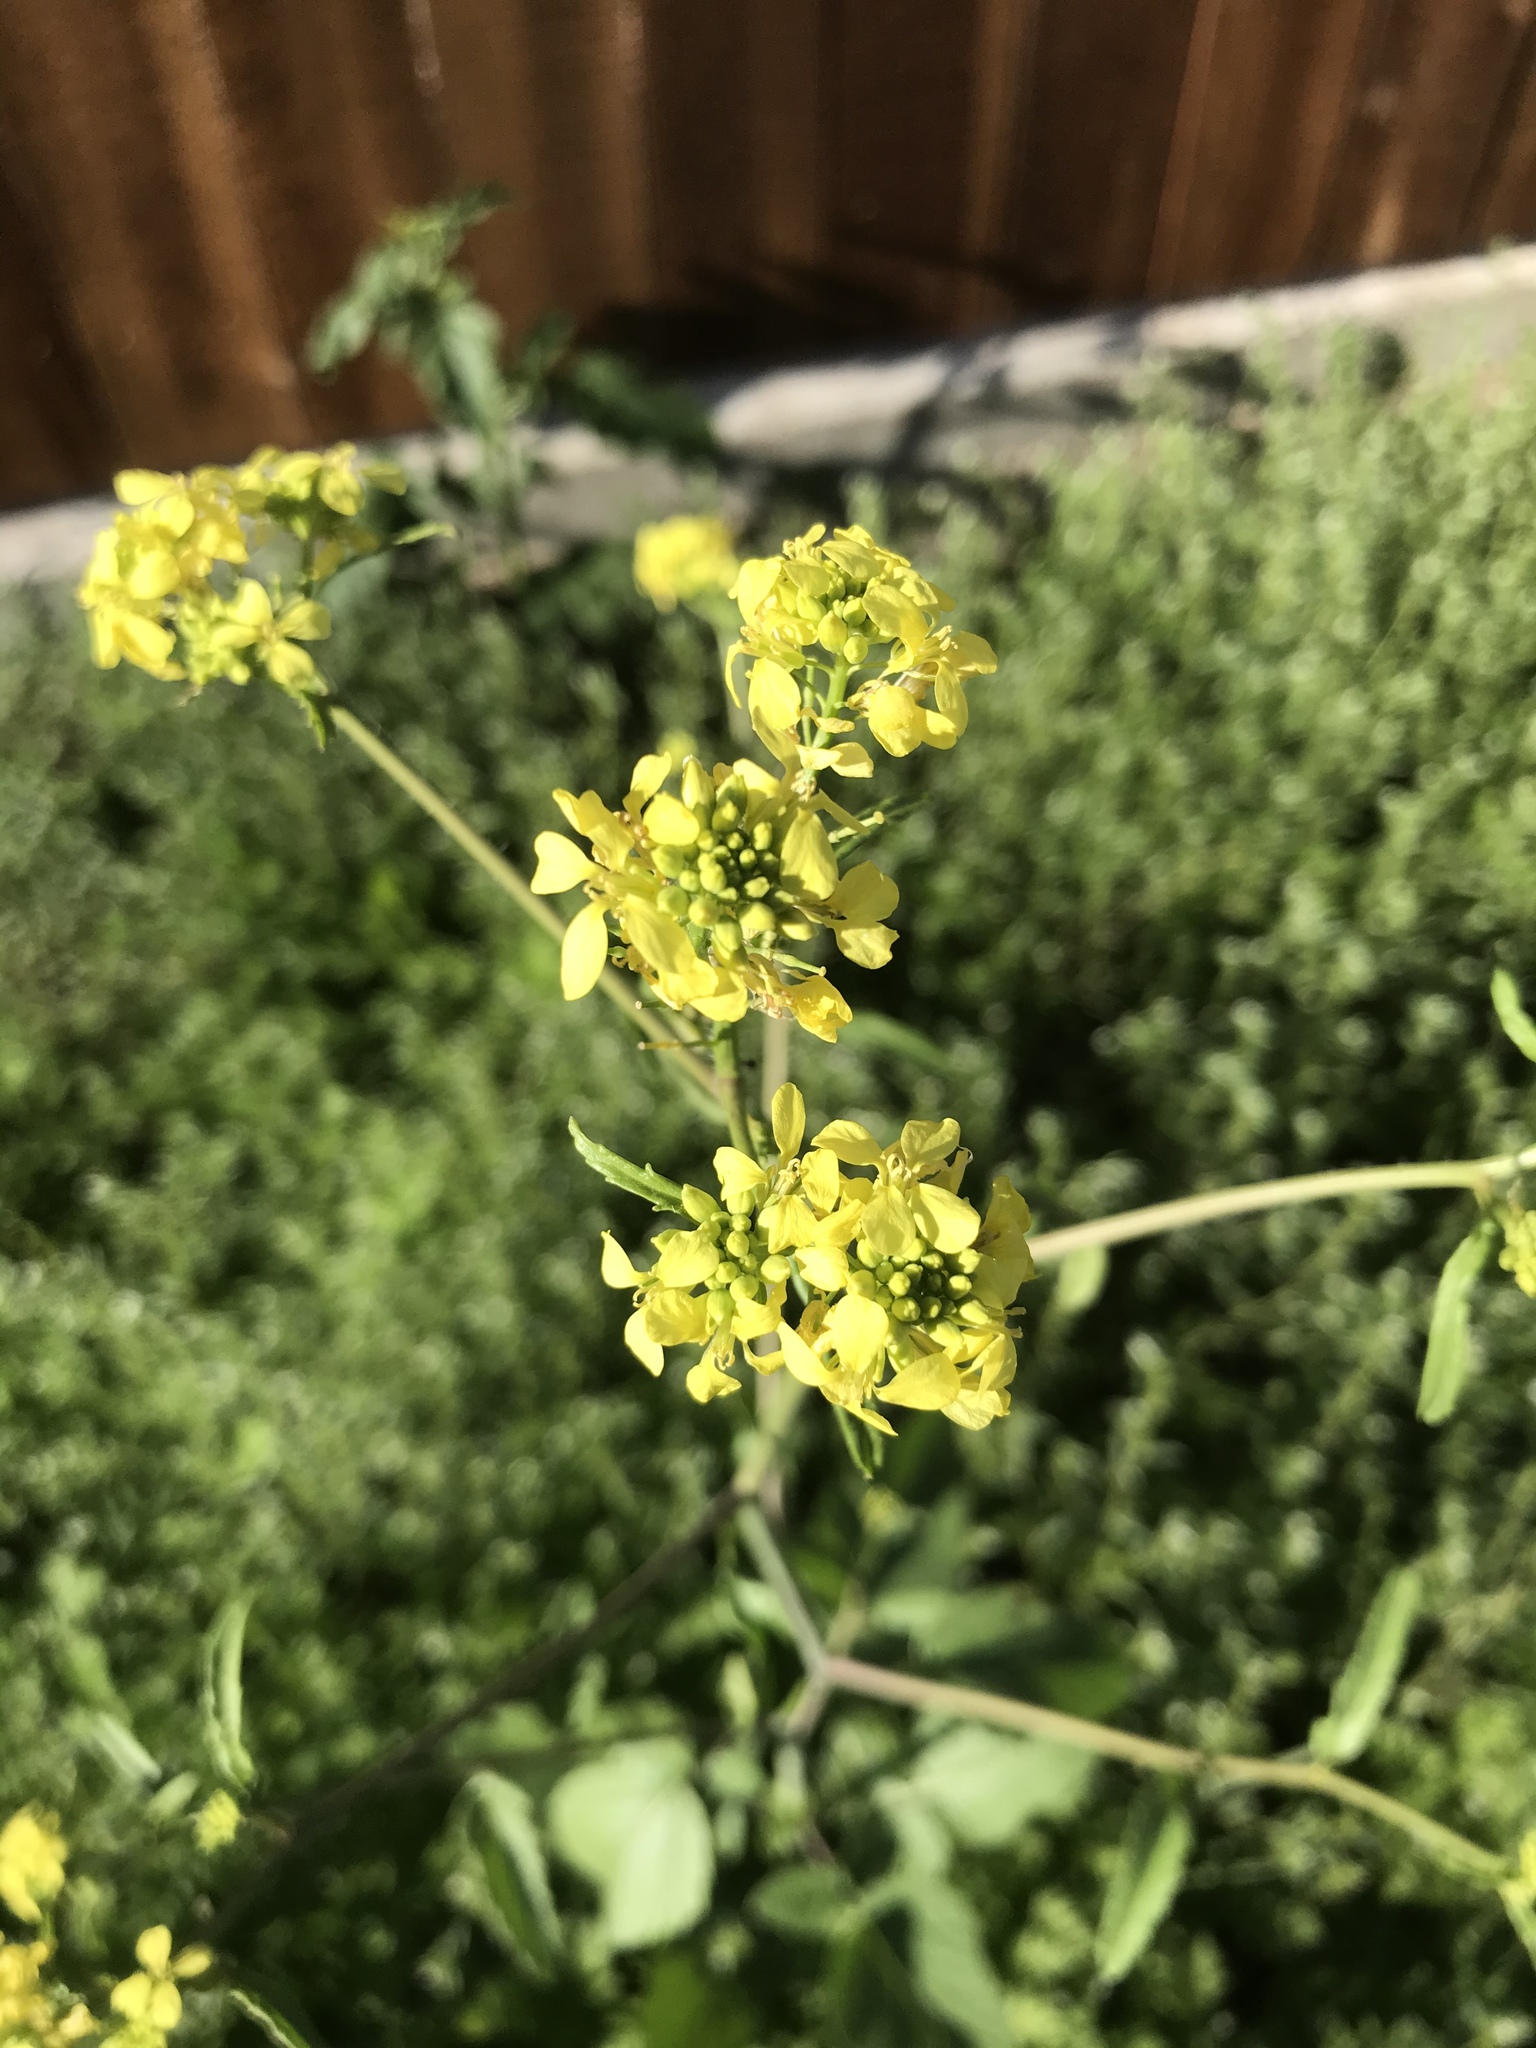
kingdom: Plantae
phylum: Tracheophyta
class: Magnoliopsida
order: Brassicales
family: Brassicaceae
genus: Rapistrum
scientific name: Rapistrum rugosum
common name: Annual bastardcabbage
